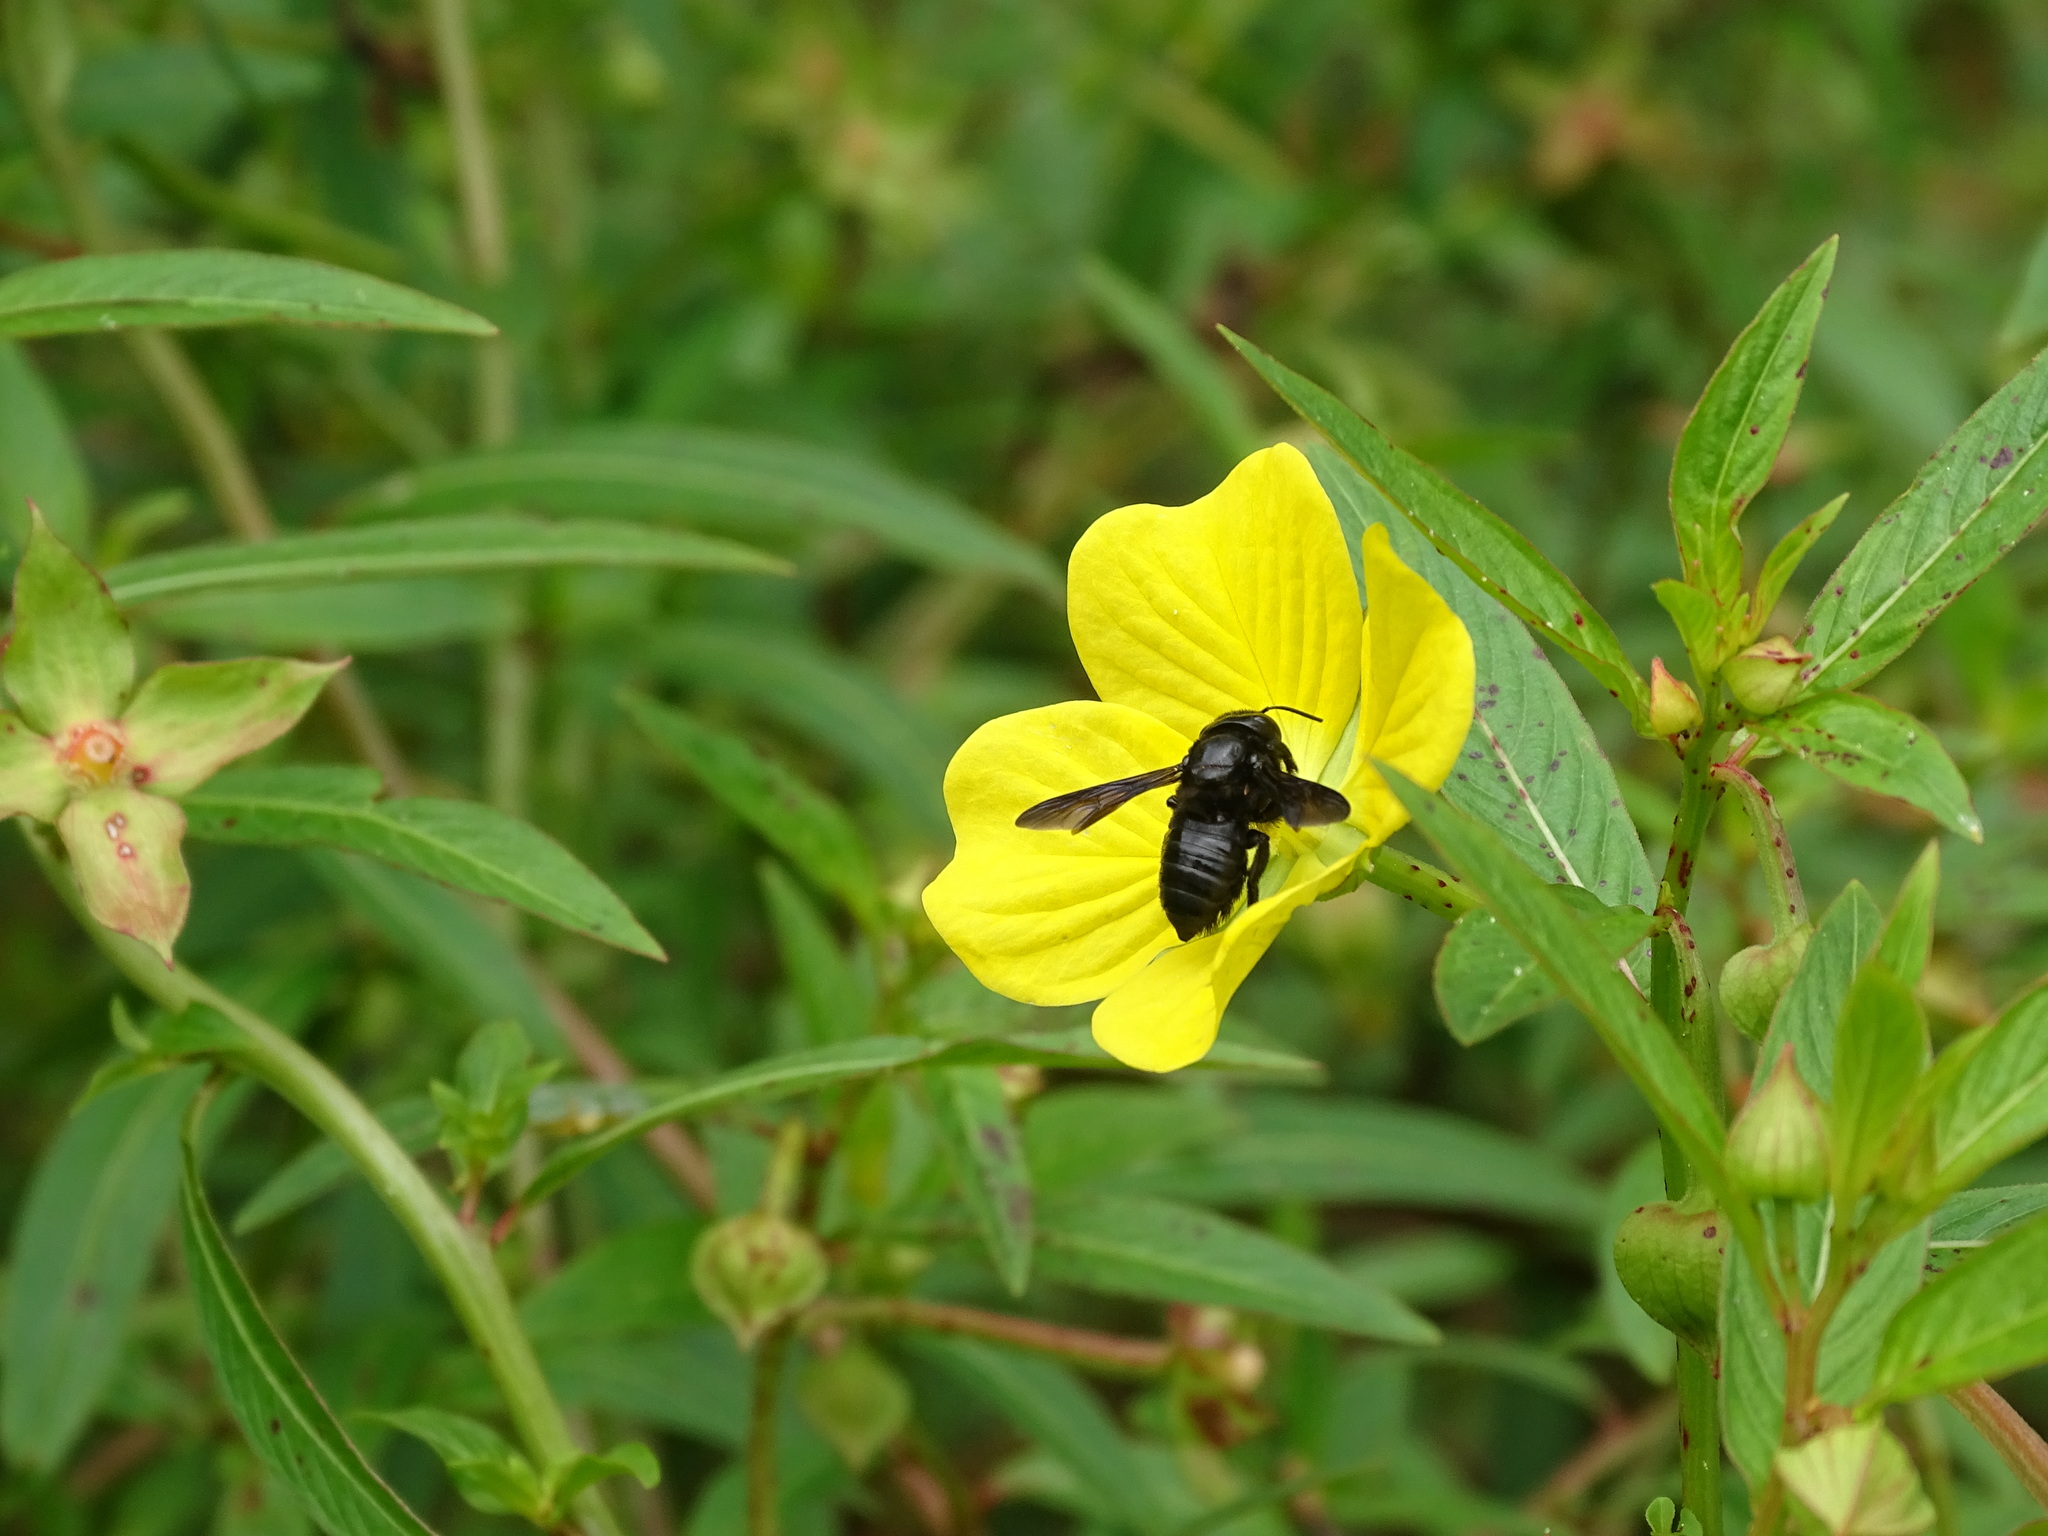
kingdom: Animalia
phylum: Arthropoda
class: Insecta
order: Hymenoptera
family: Megachilidae
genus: Megachile
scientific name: Megachile xylocopoides
